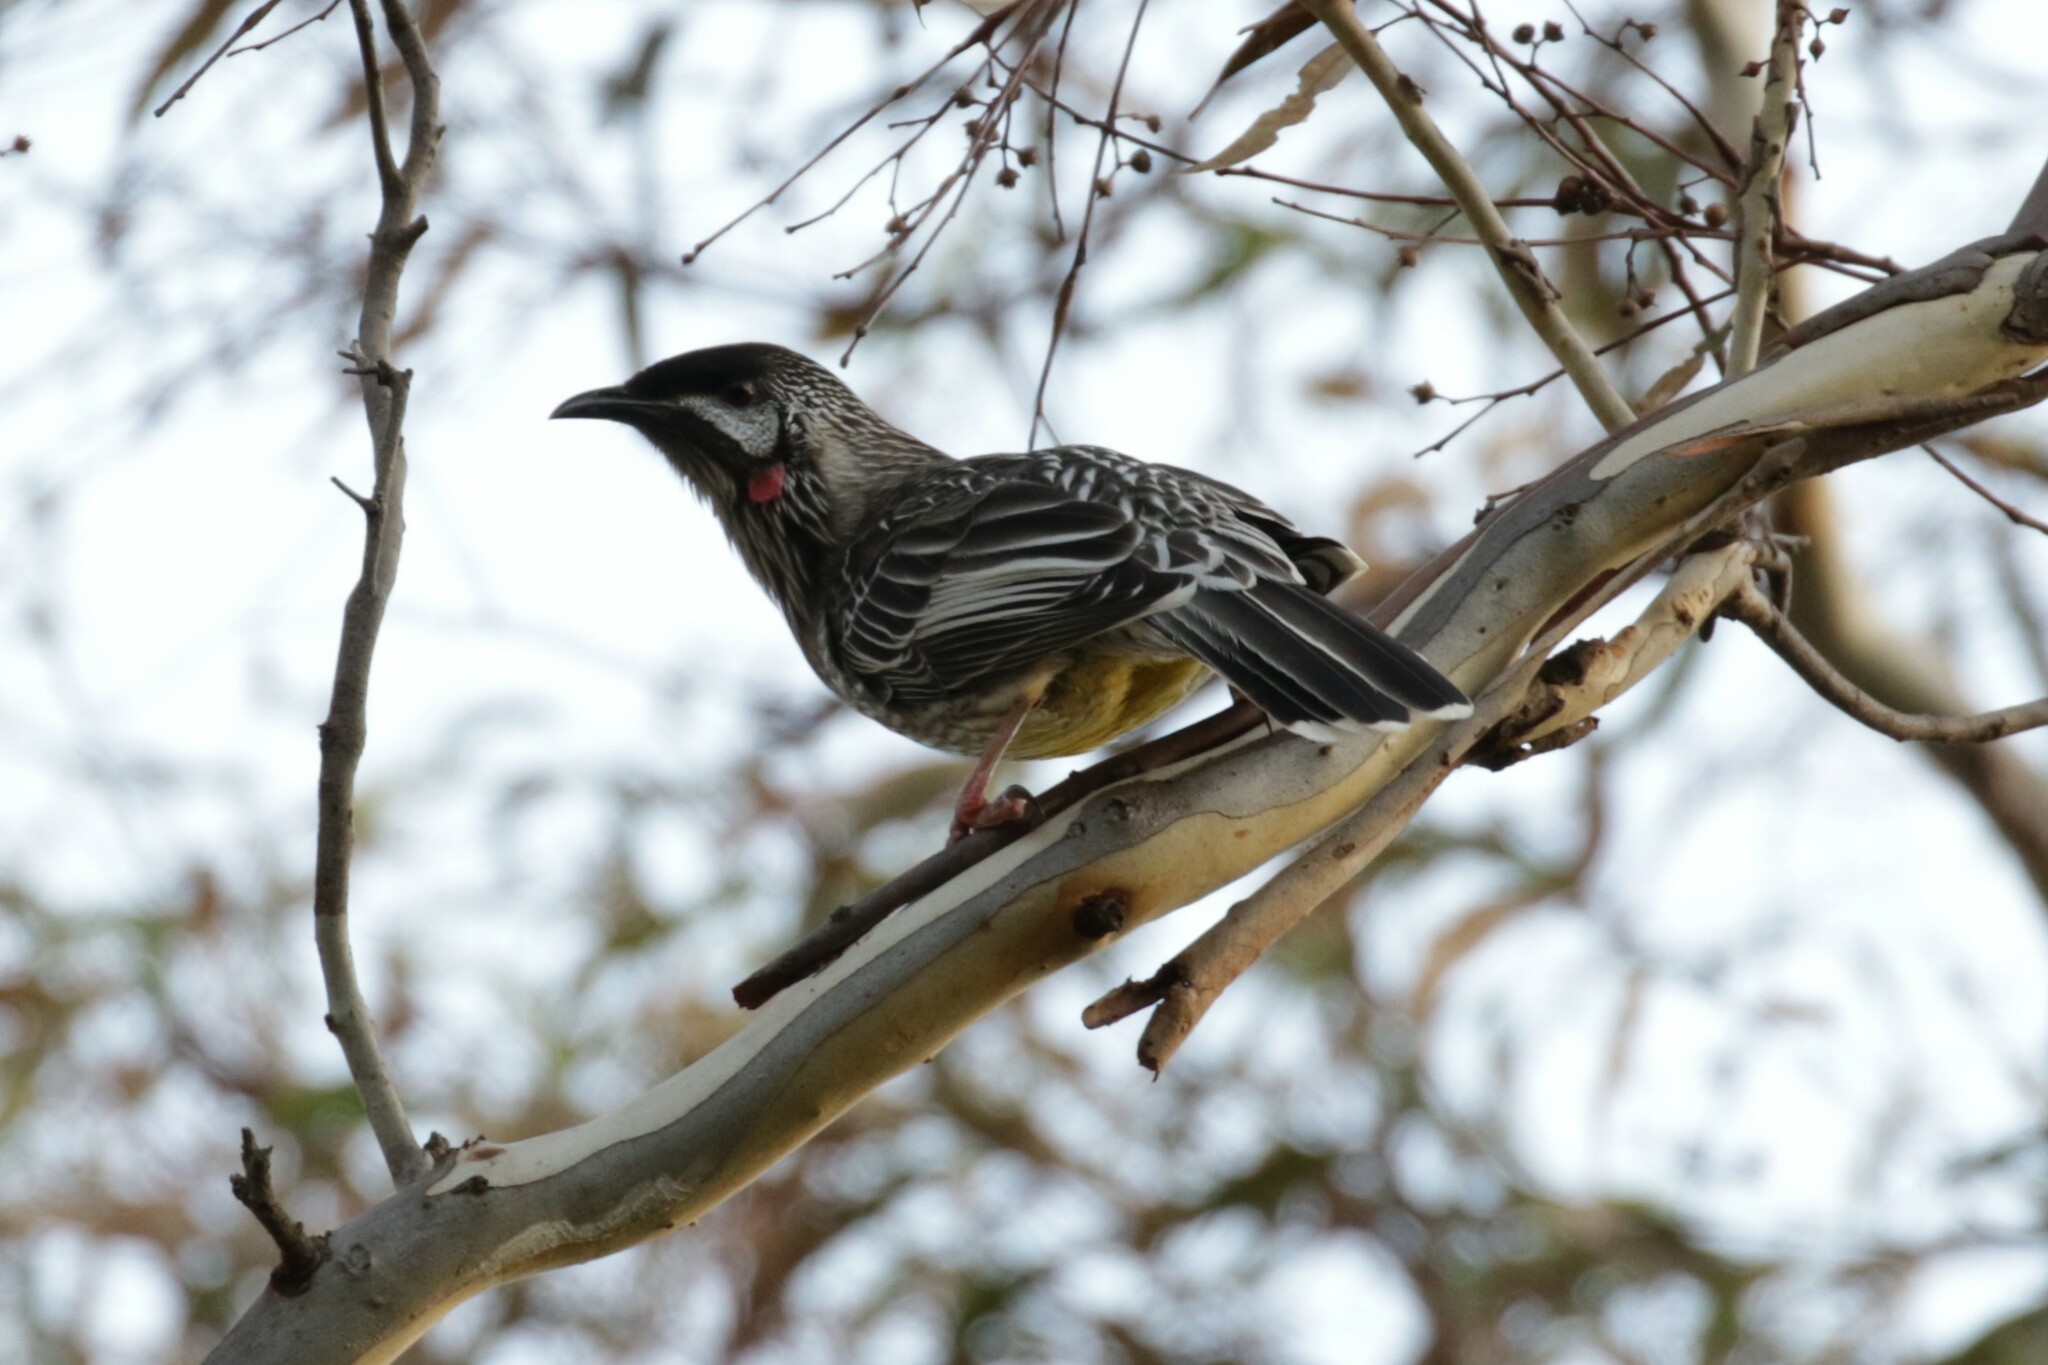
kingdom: Animalia
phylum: Chordata
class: Aves
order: Passeriformes
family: Meliphagidae
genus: Anthochaera
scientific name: Anthochaera carunculata
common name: Red wattlebird
